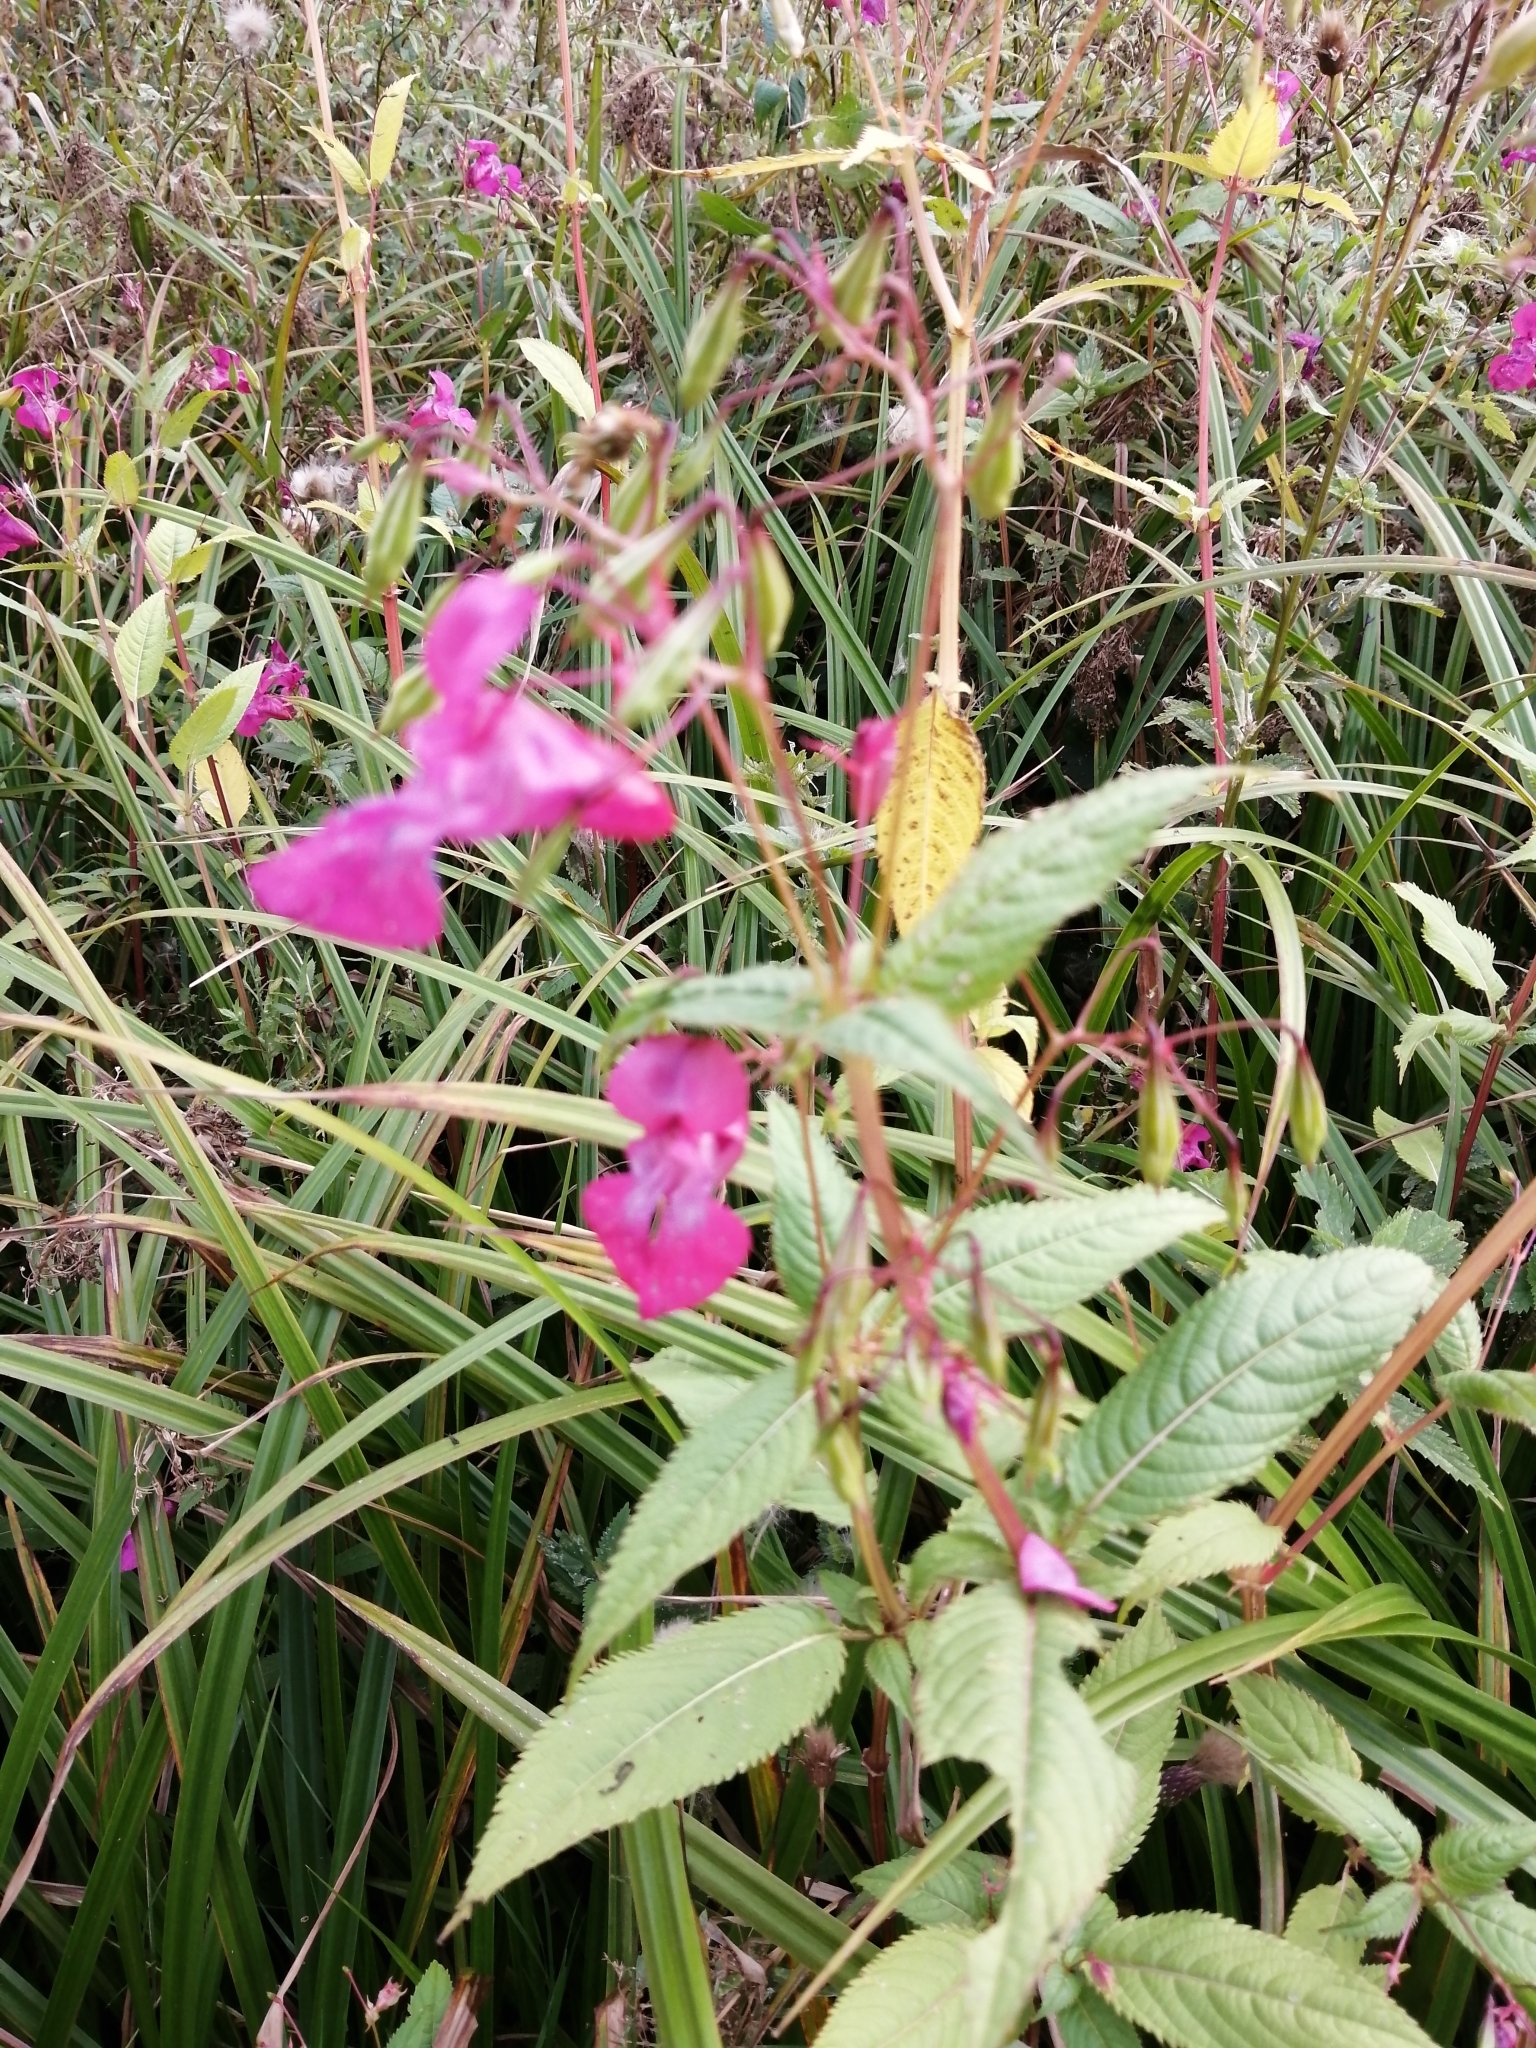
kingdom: Plantae
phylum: Tracheophyta
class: Magnoliopsida
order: Ericales
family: Balsaminaceae
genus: Impatiens
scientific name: Impatiens glandulifera
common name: Himalayan balsam
